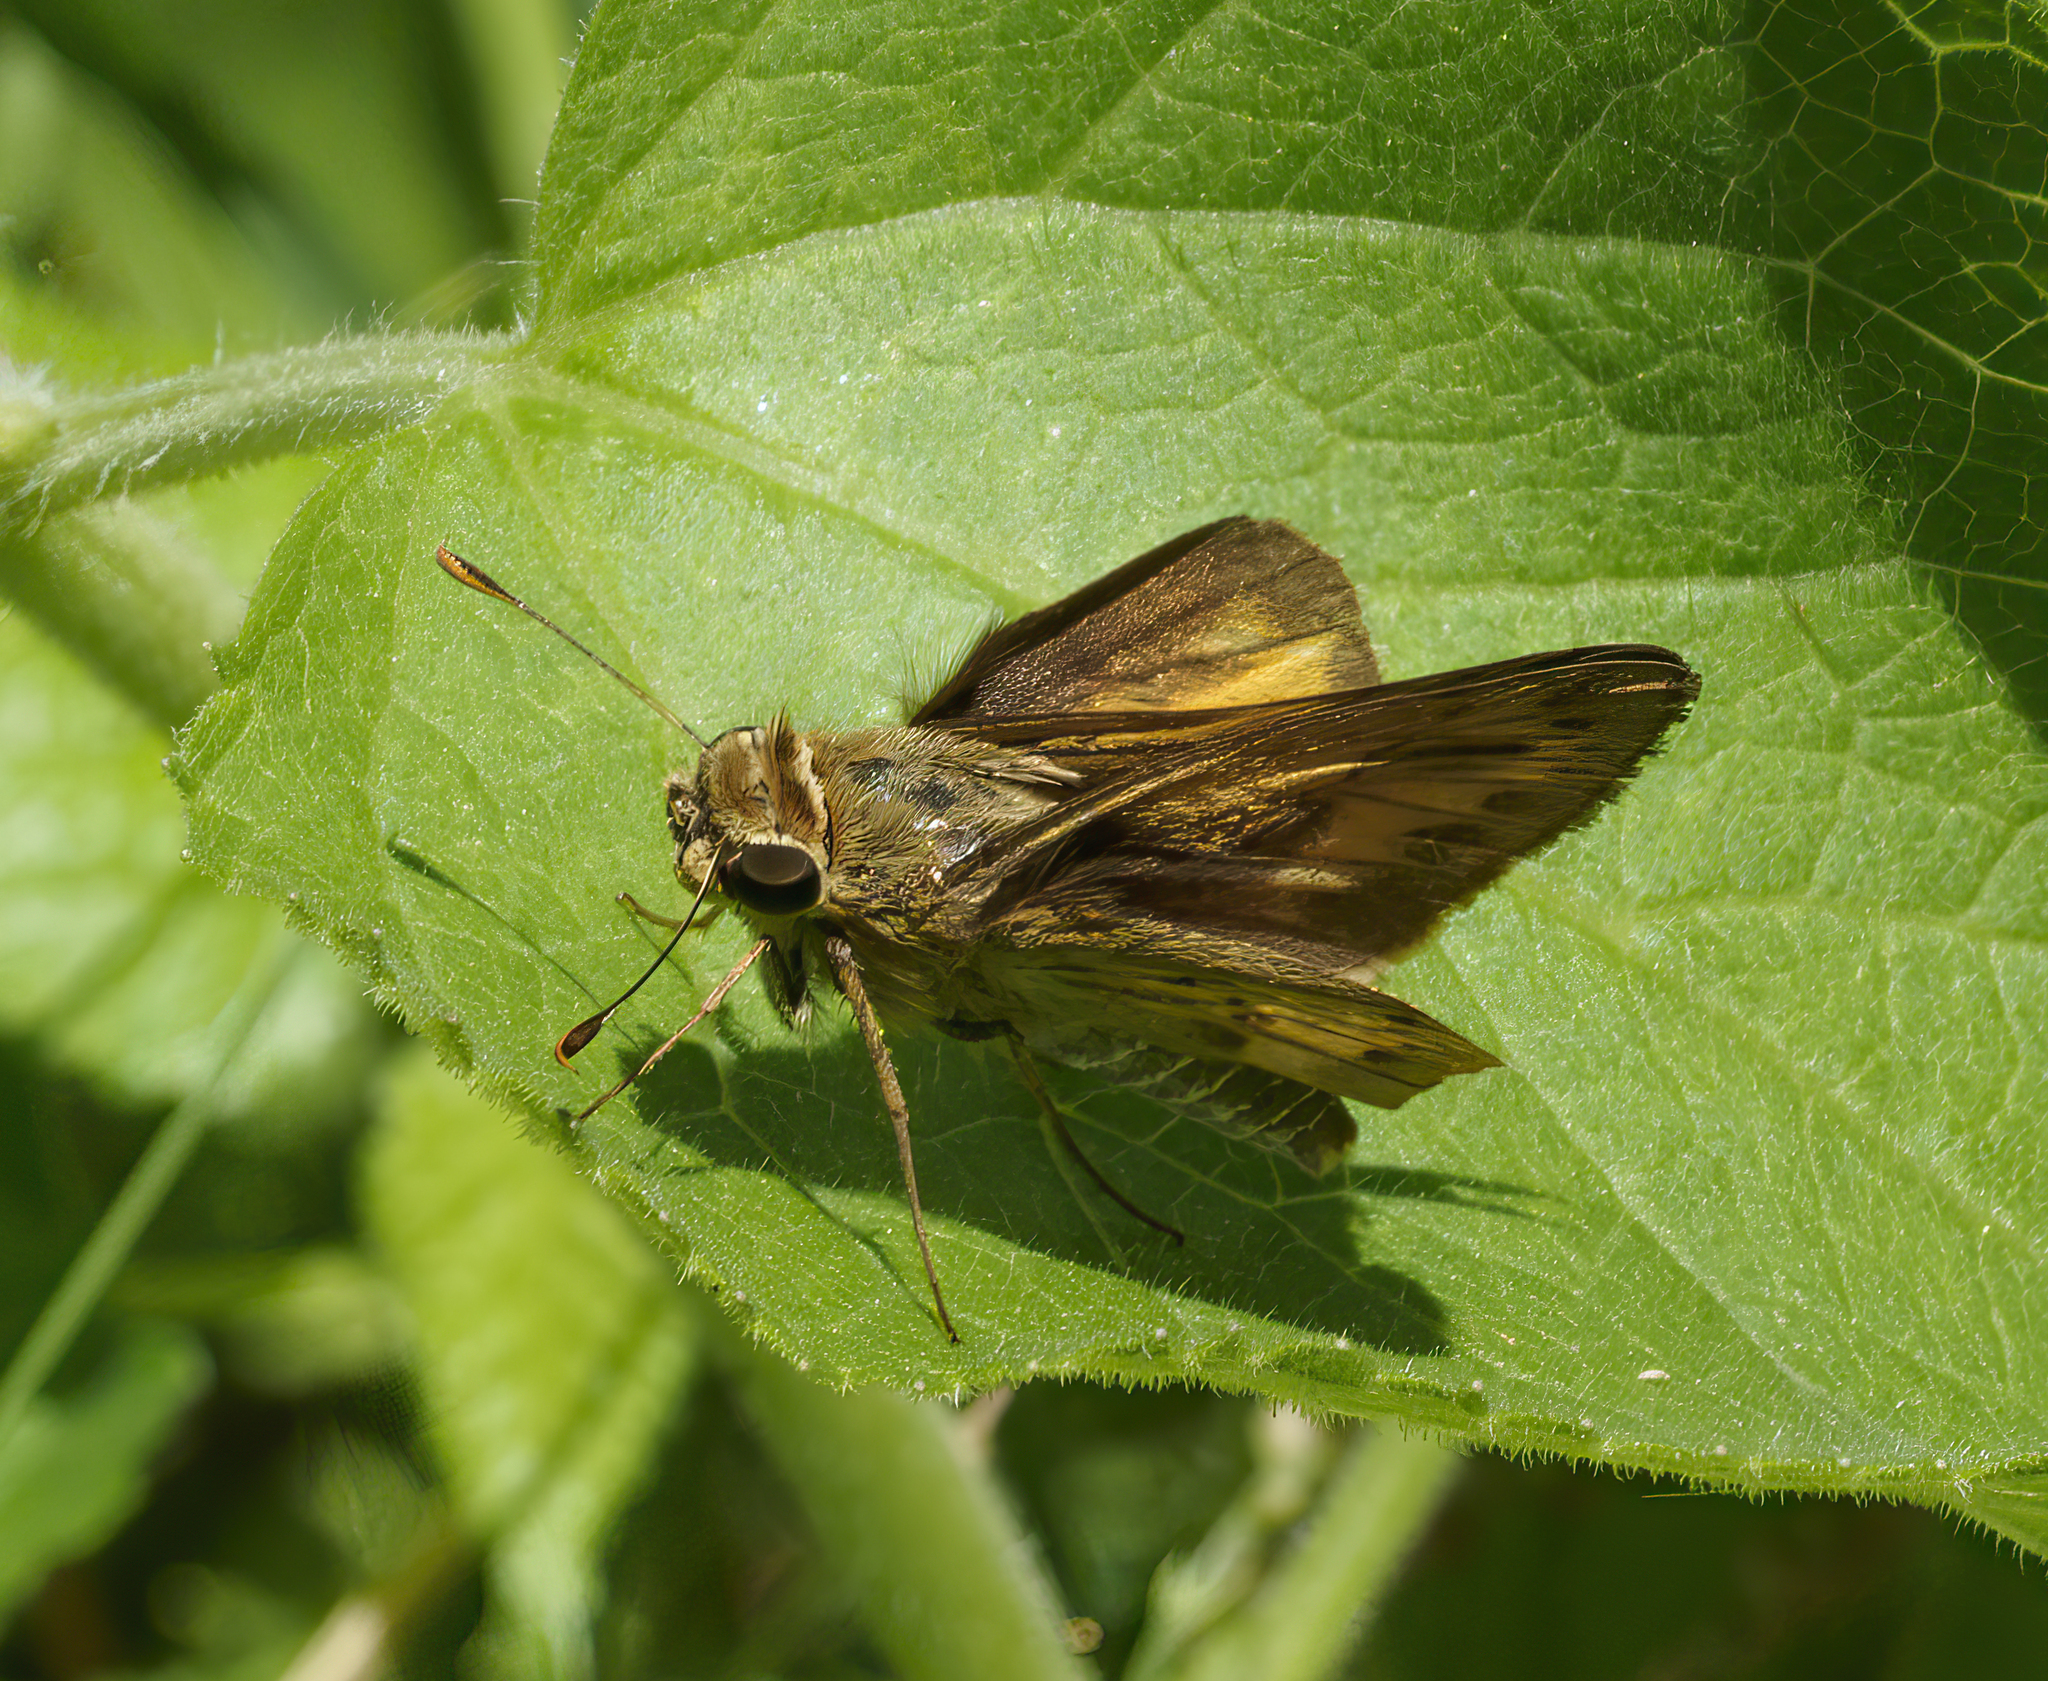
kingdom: Animalia
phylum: Arthropoda
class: Insecta
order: Lepidoptera
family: Hesperiidae
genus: Polites
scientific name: Polites vibex
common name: Whirlabout
